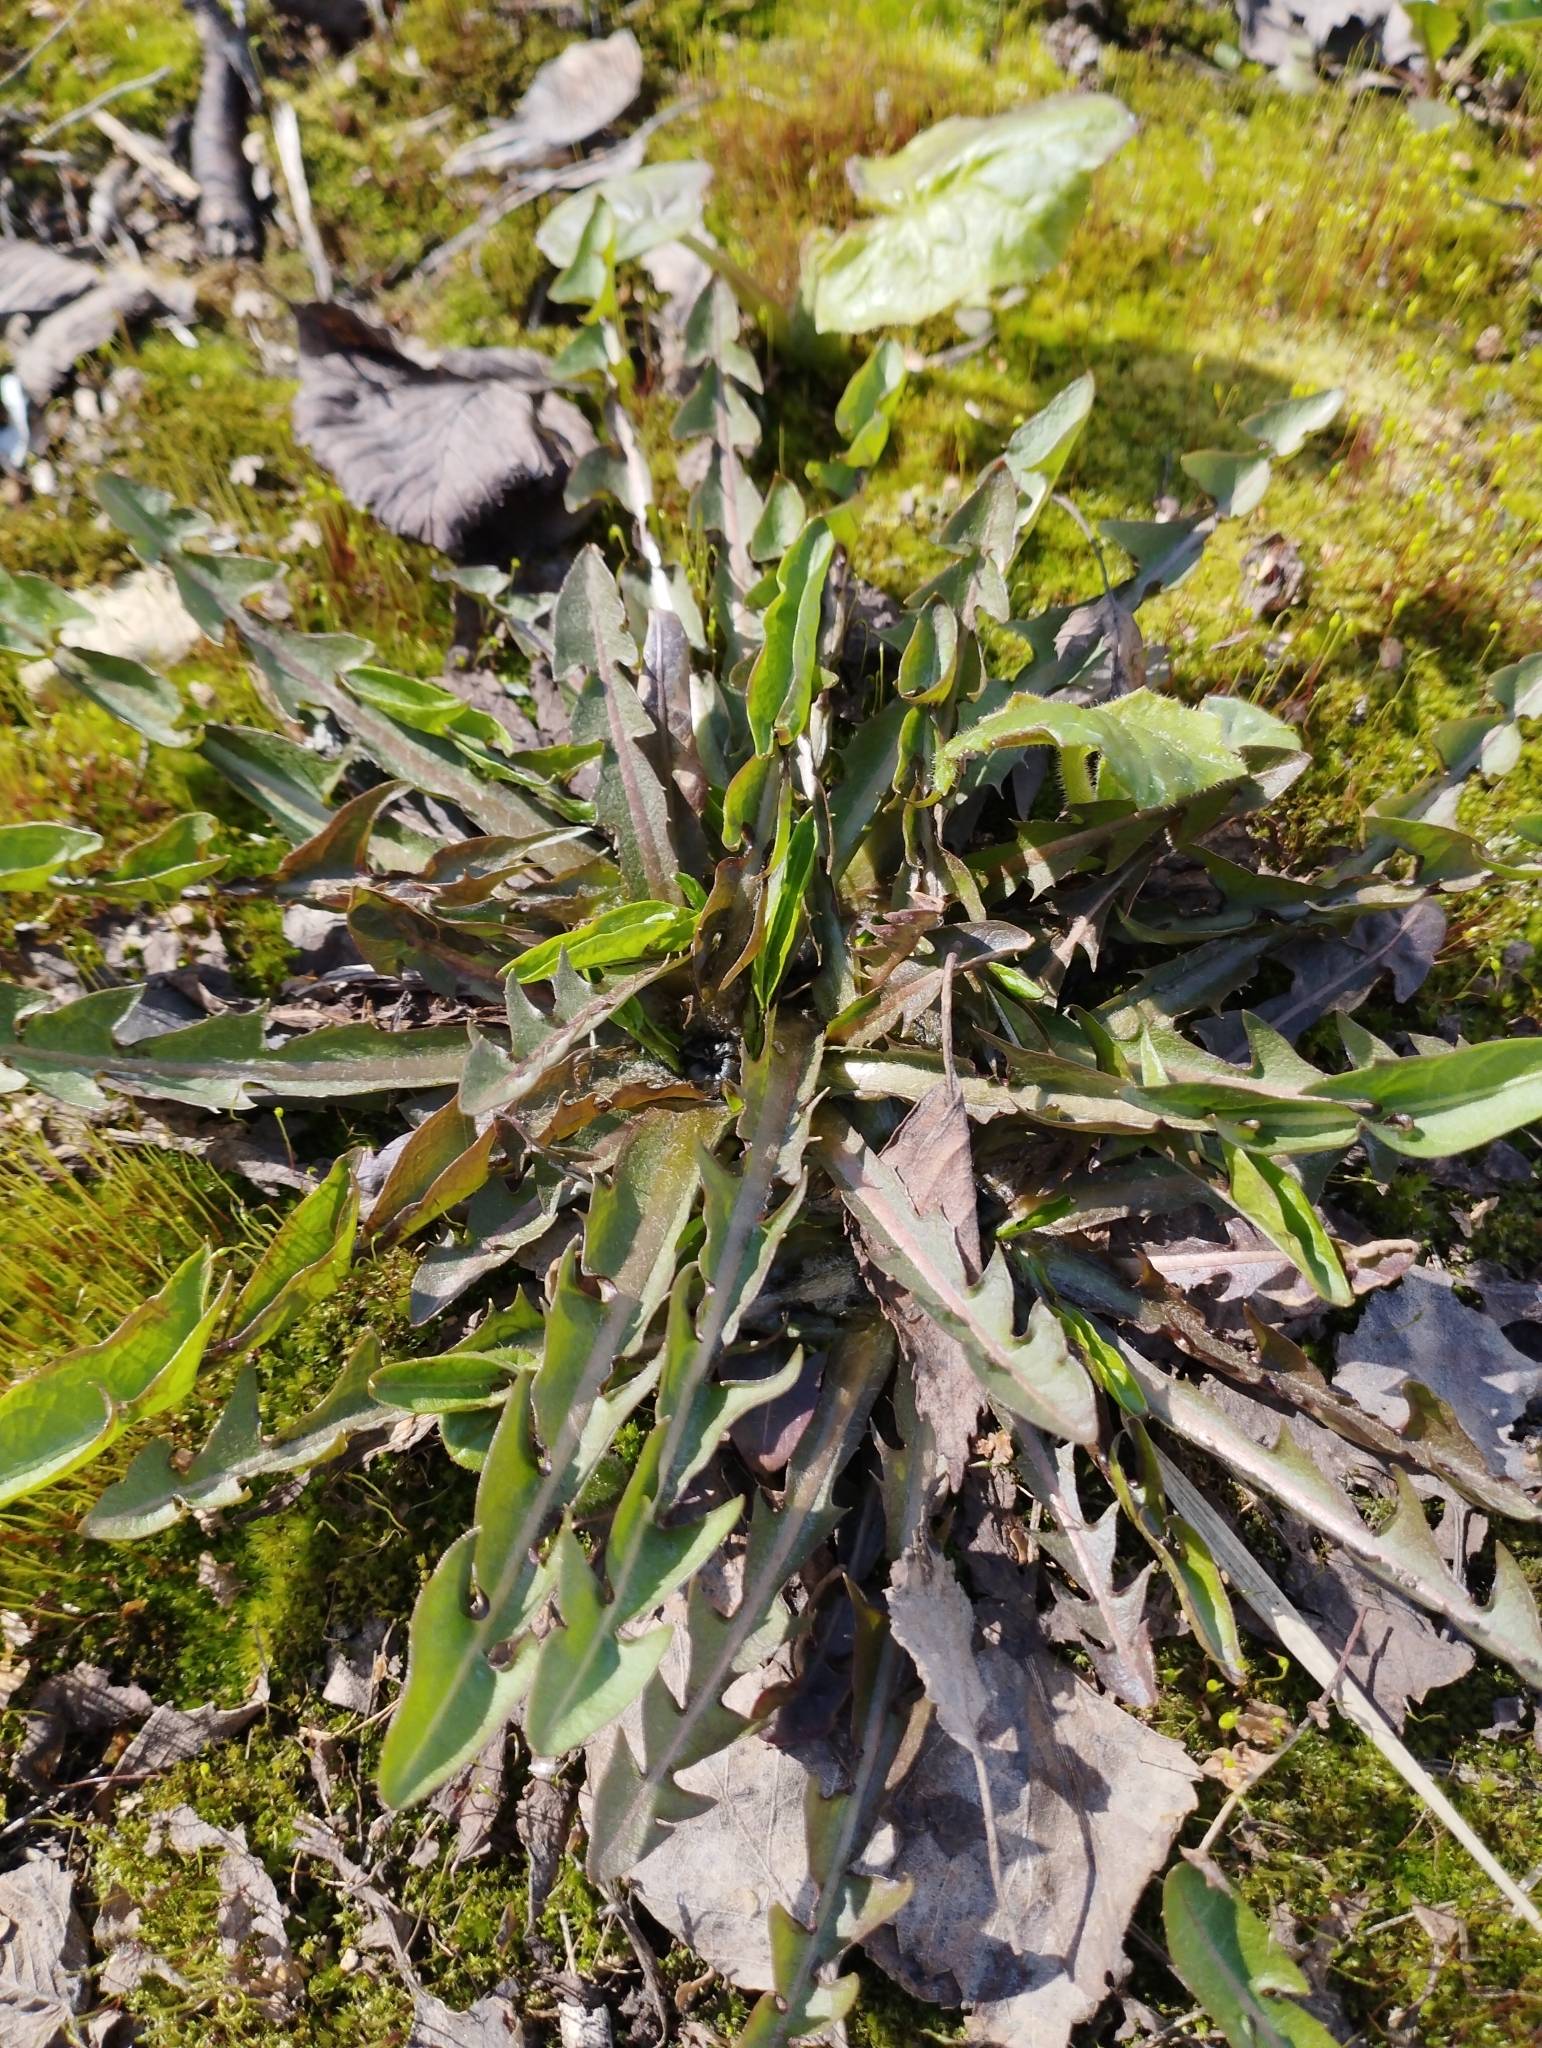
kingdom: Plantae
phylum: Tracheophyta
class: Magnoliopsida
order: Asterales
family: Asteraceae
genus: Taraxacum
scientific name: Taraxacum officinale
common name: Common dandelion
